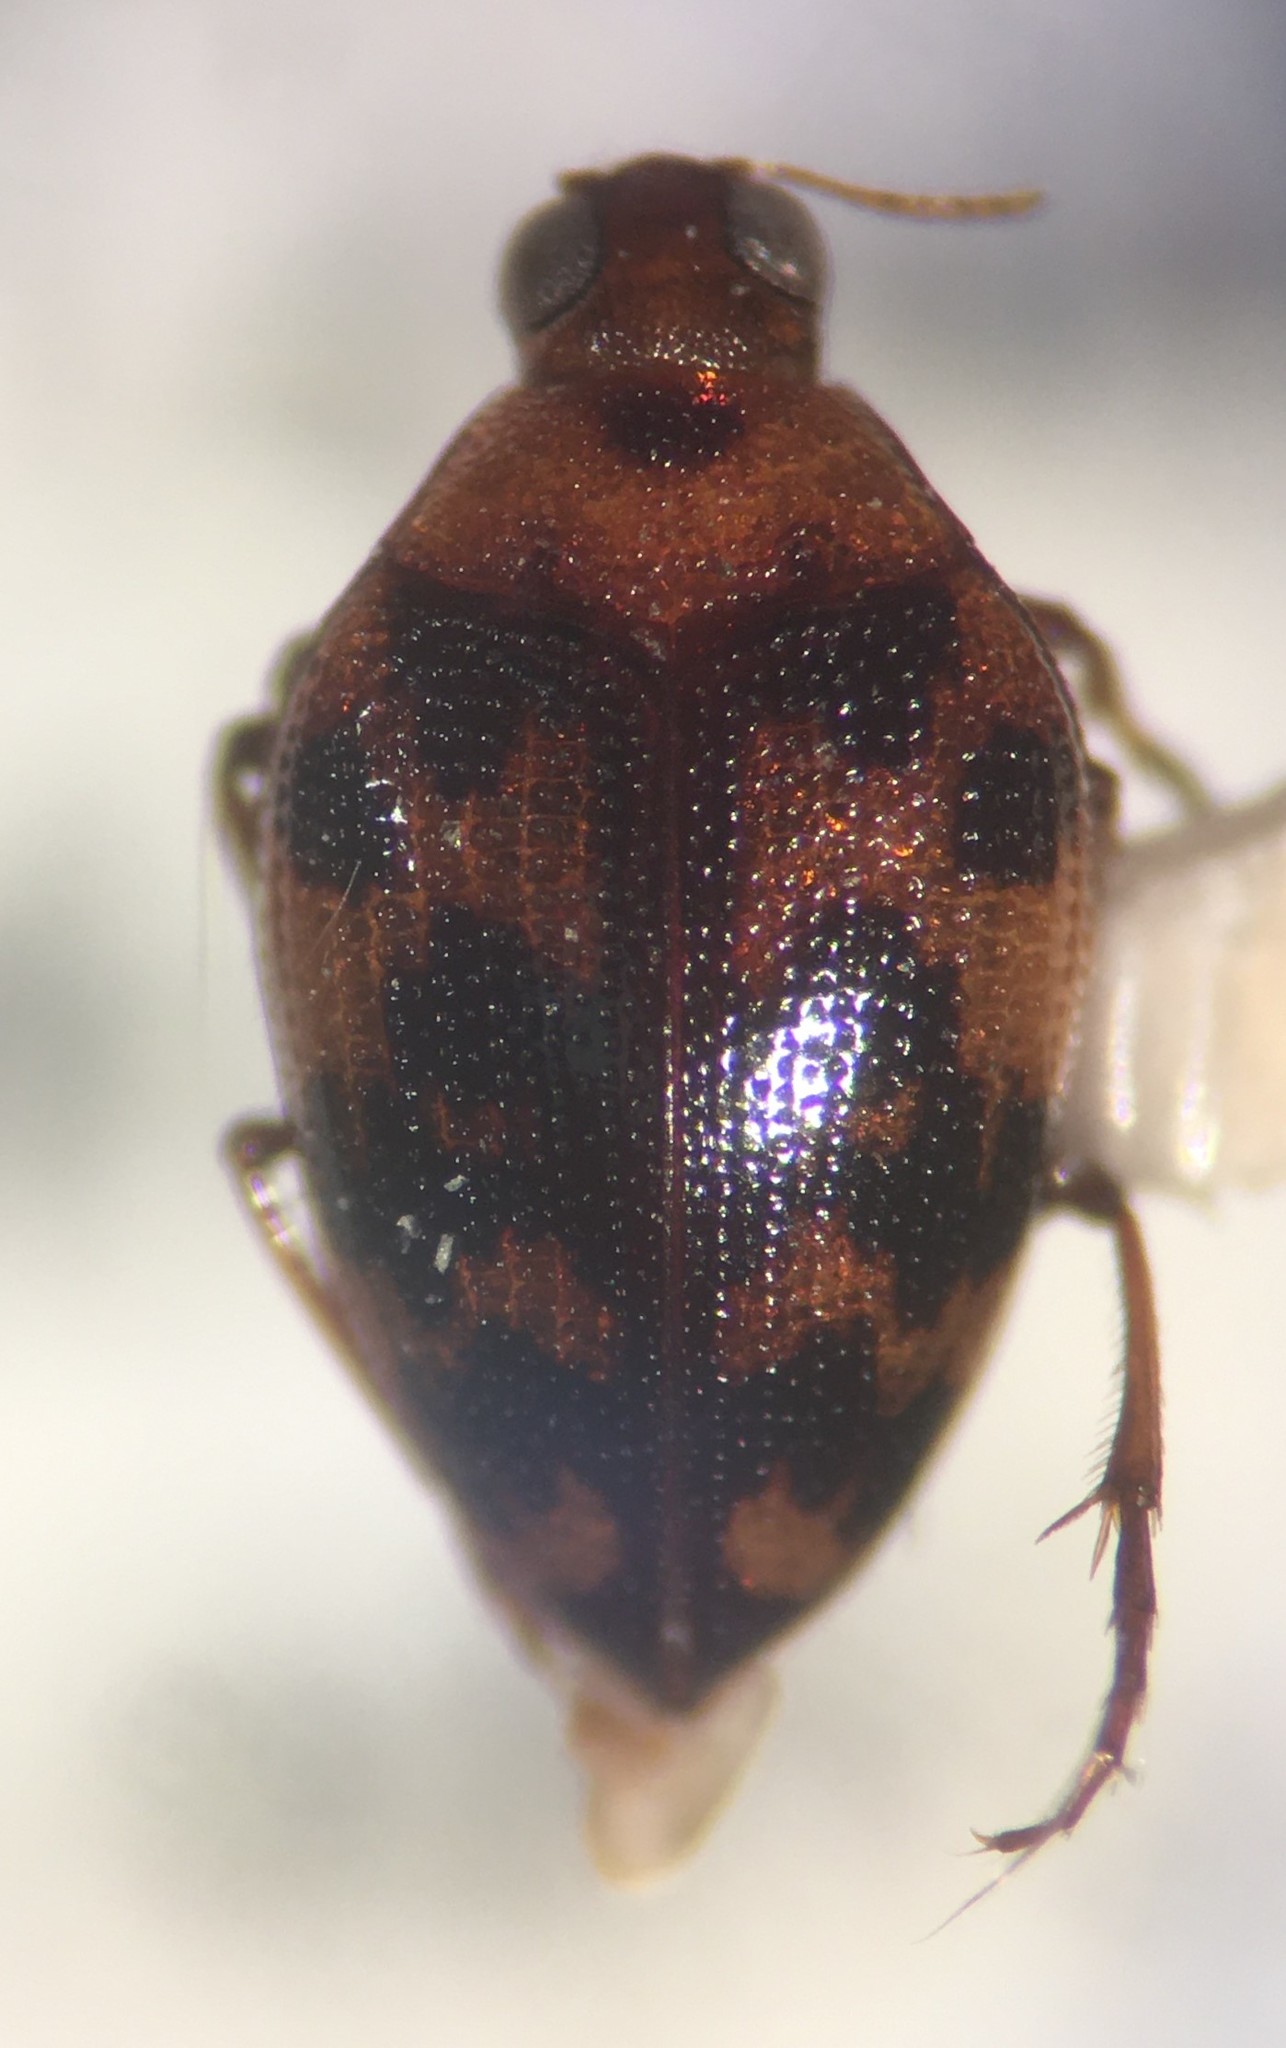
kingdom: Animalia
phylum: Arthropoda
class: Insecta
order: Coleoptera
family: Haliplidae
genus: Haliplus
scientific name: Haliplus punctatus
